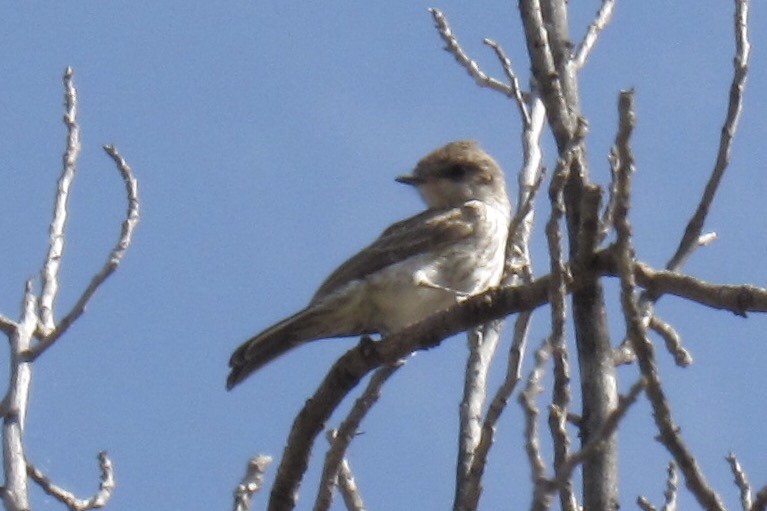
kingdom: Animalia
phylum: Chordata
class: Aves
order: Passeriformes
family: Tyrannidae
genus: Pyrocephalus
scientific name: Pyrocephalus rubinus
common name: Vermilion flycatcher
